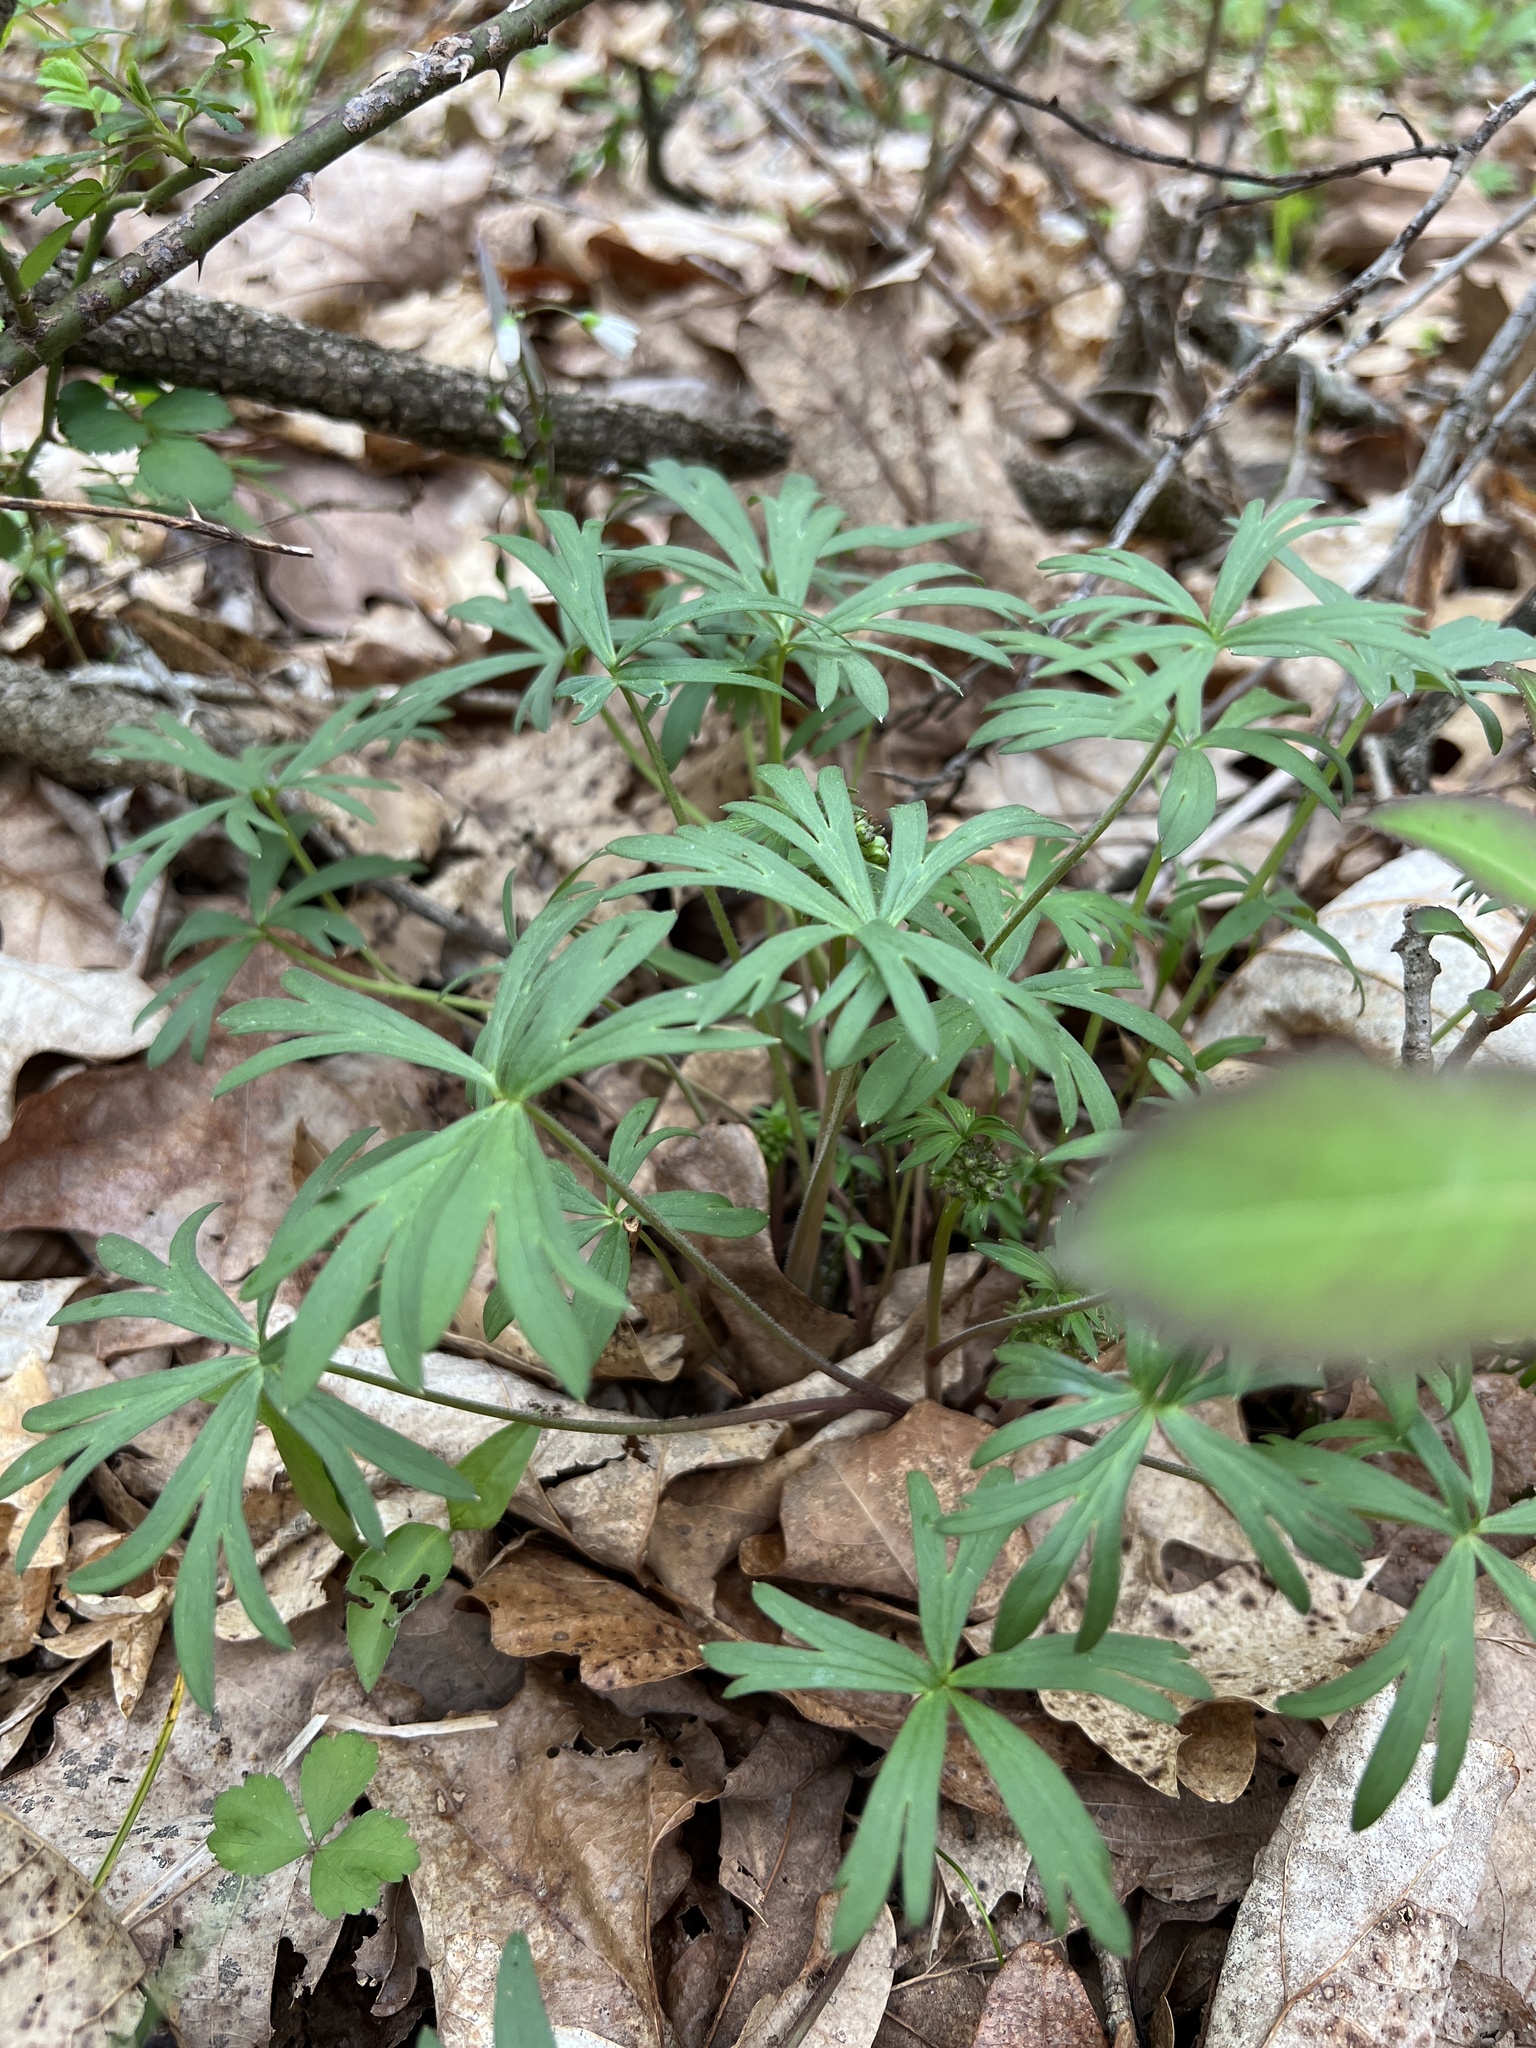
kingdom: Plantae
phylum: Tracheophyta
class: Magnoliopsida
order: Ranunculales
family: Ranunculaceae
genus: Delphinium
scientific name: Delphinium tricorne
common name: Dwarf larkspur
